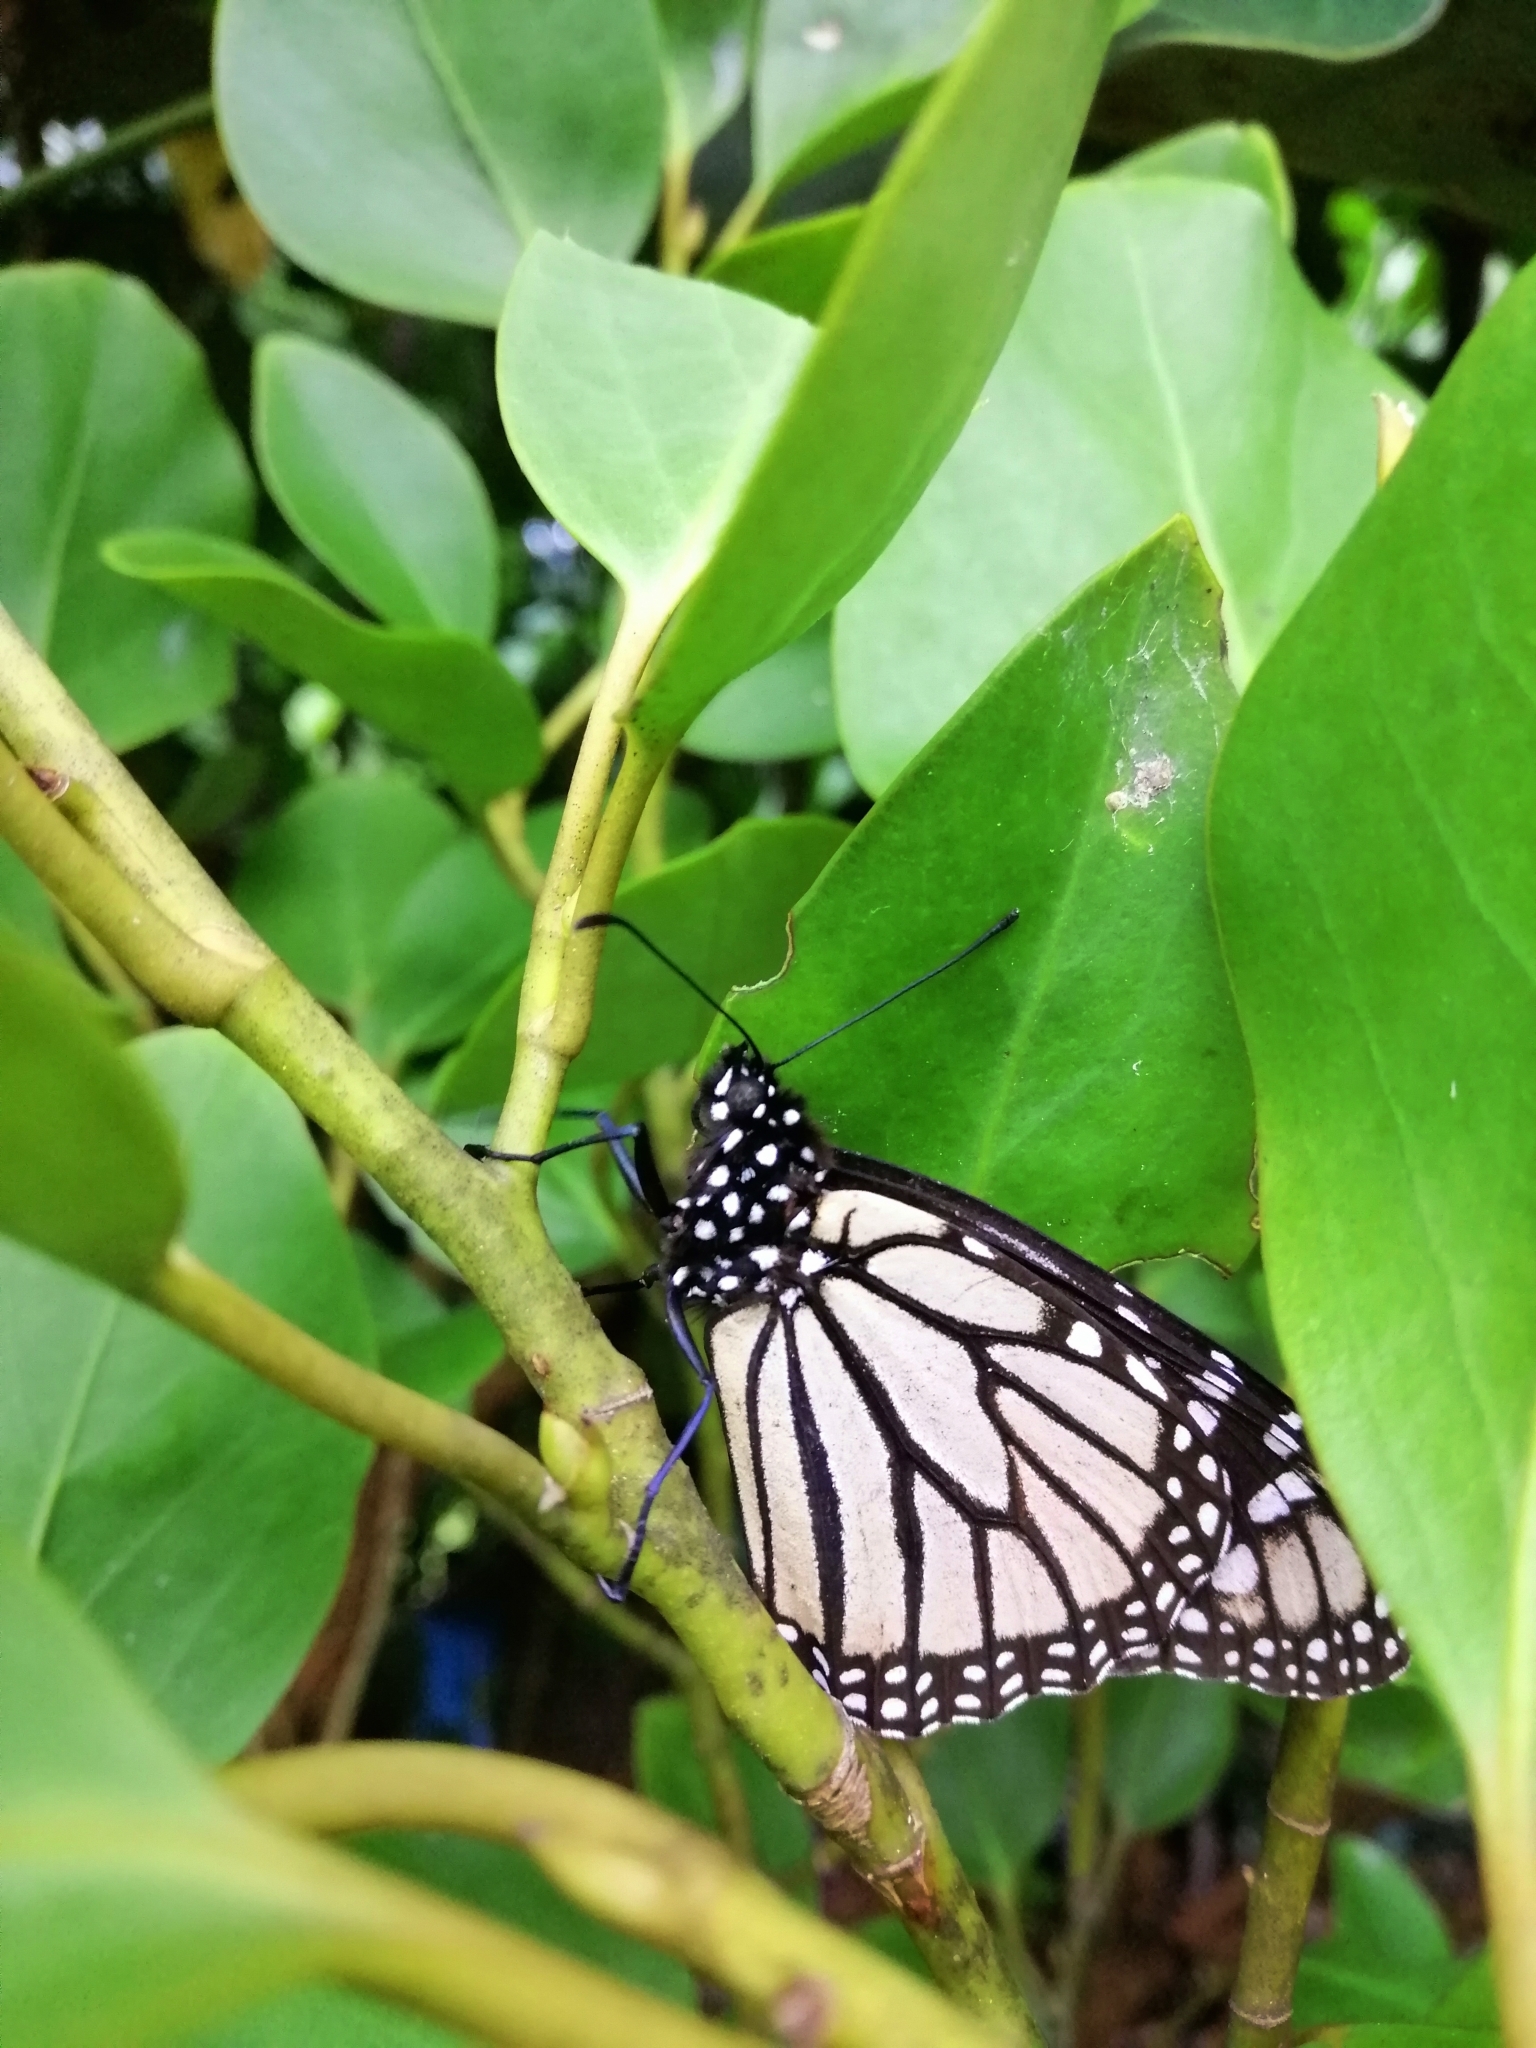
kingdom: Animalia
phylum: Arthropoda
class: Insecta
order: Lepidoptera
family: Nymphalidae
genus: Danaus
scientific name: Danaus plexippus
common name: Monarch
